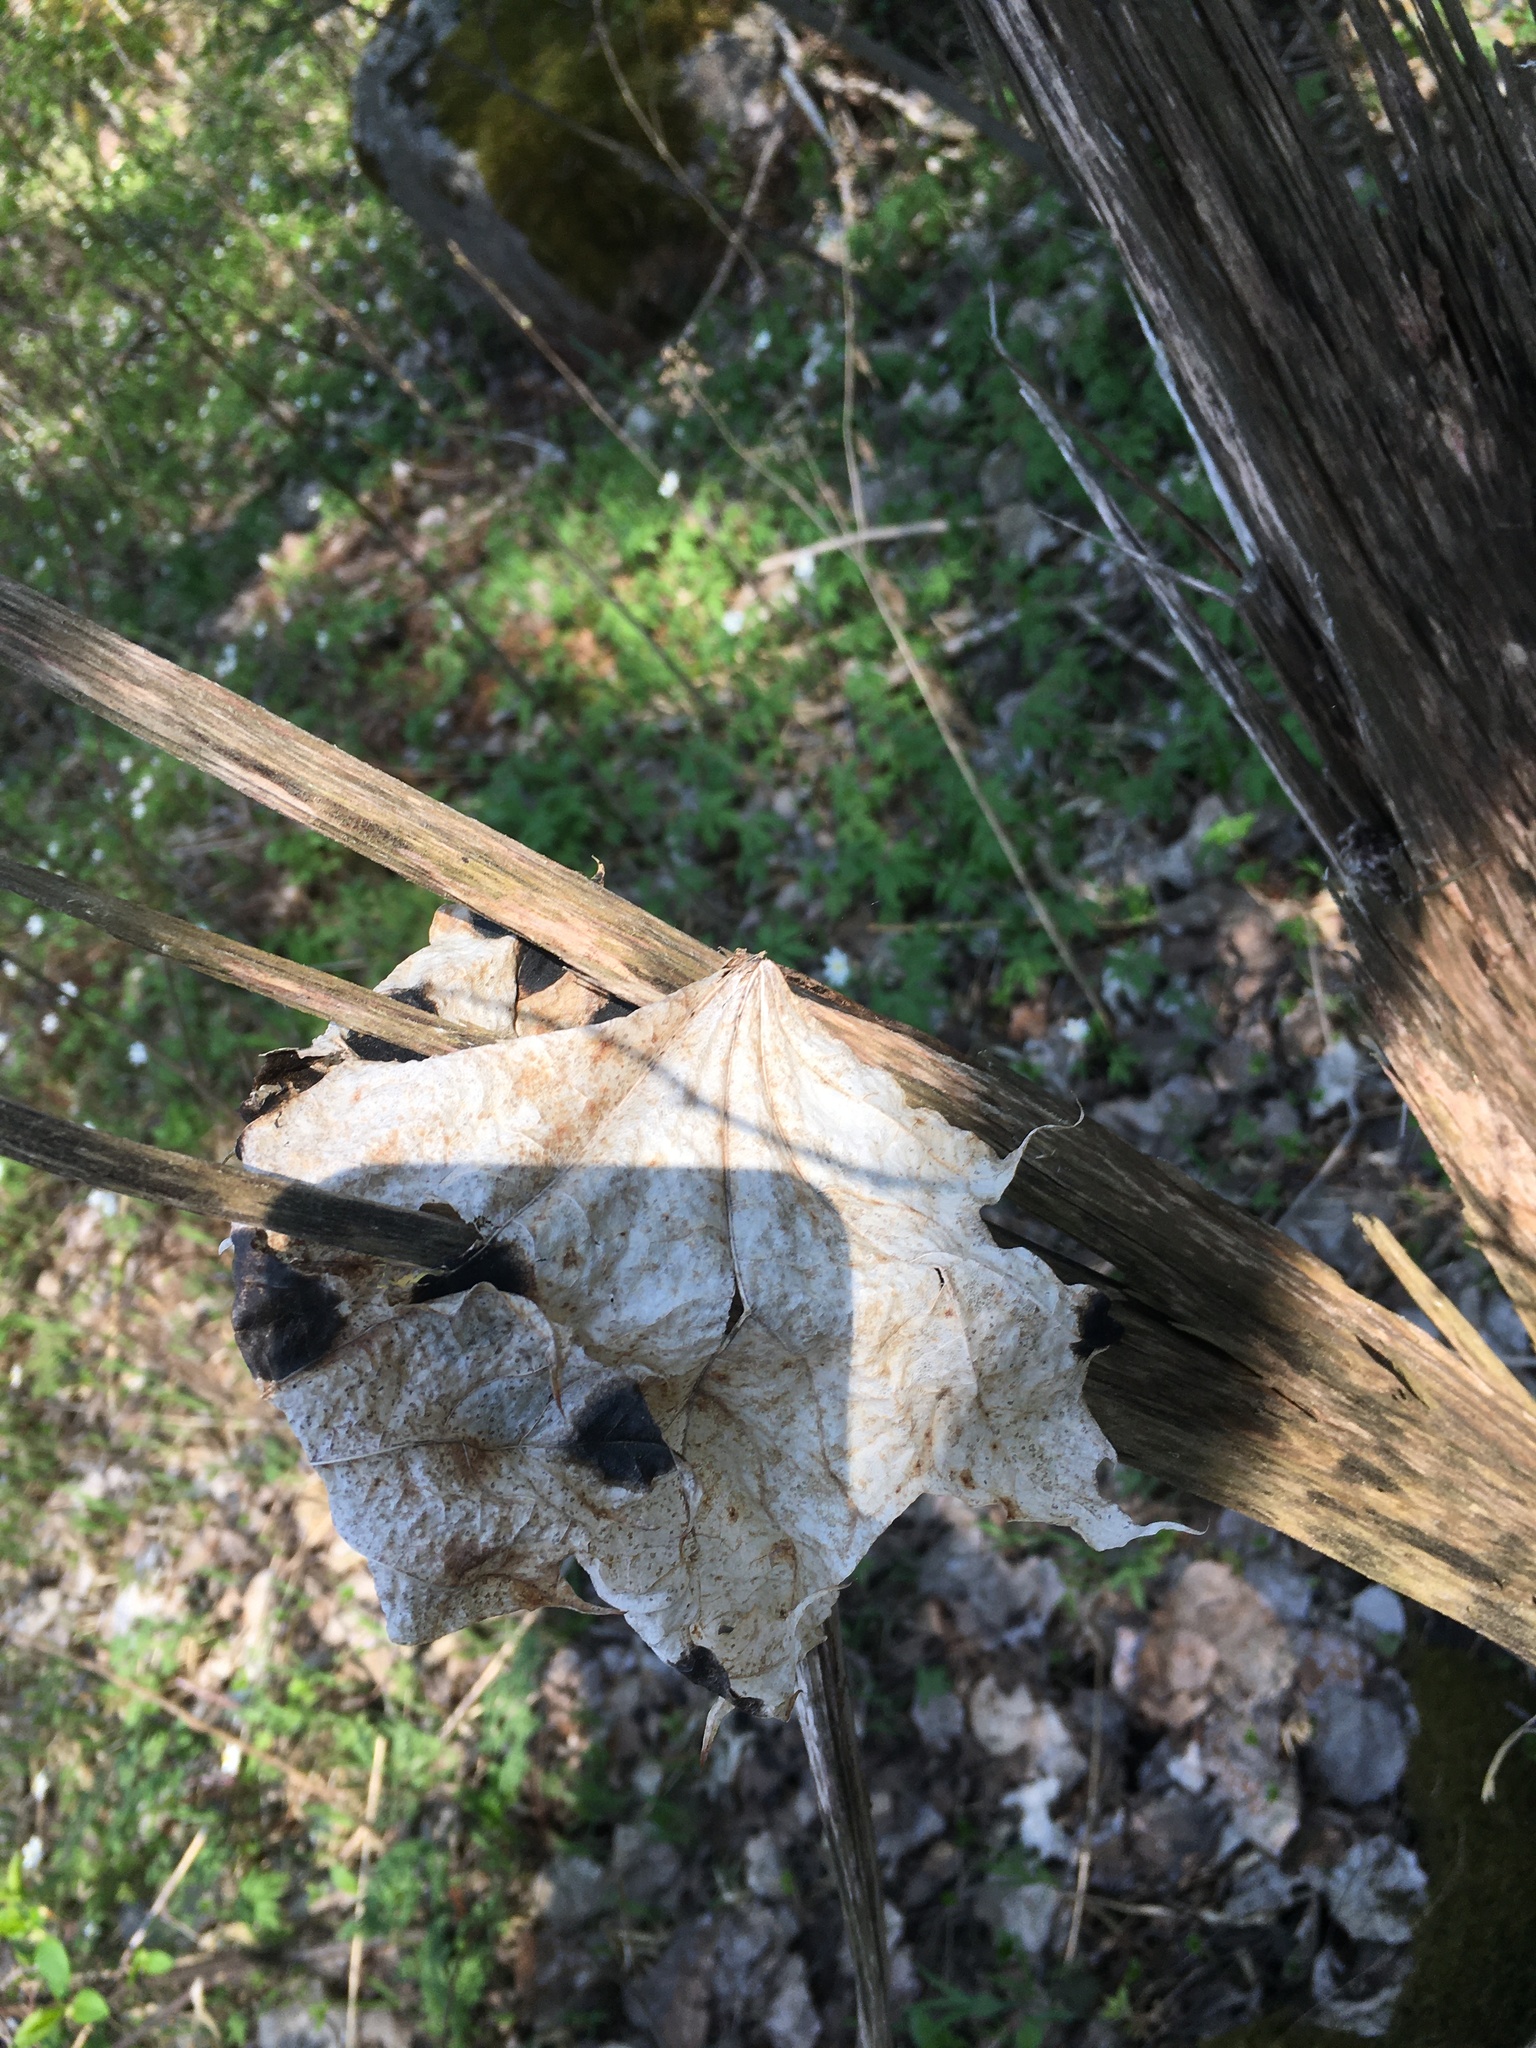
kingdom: Plantae
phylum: Tracheophyta
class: Magnoliopsida
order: Sapindales
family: Sapindaceae
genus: Acer
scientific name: Acer platanoides
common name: Norway maple
